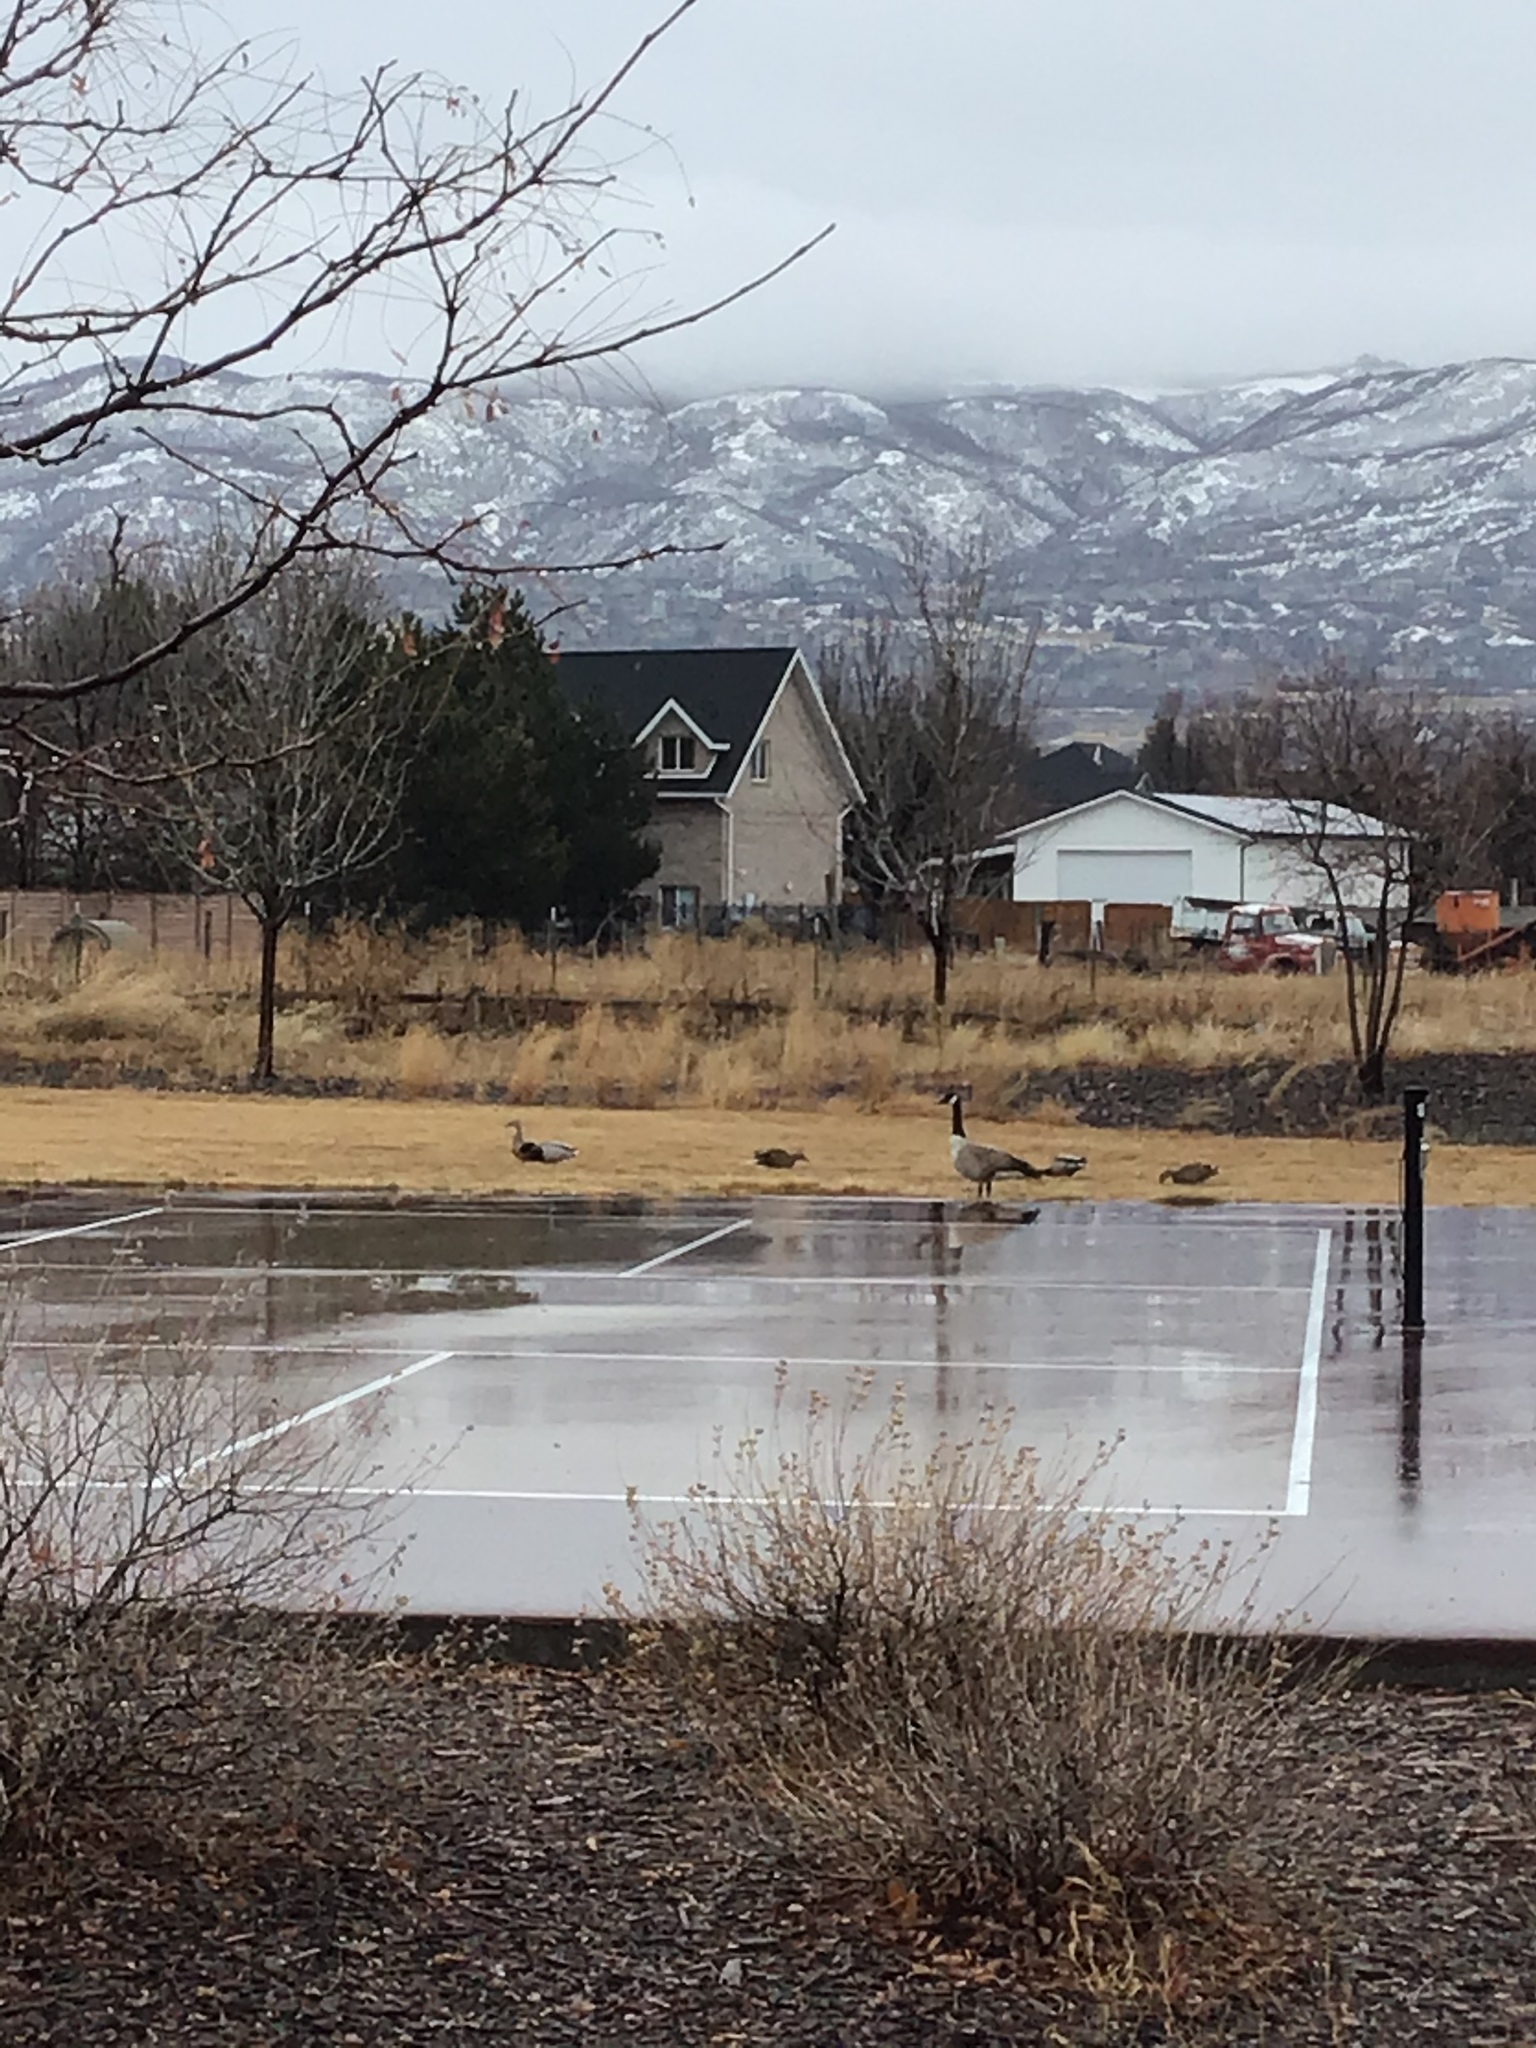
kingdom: Animalia
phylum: Chordata
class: Aves
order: Anseriformes
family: Anatidae
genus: Anas
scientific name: Anas platyrhynchos
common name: Mallard
